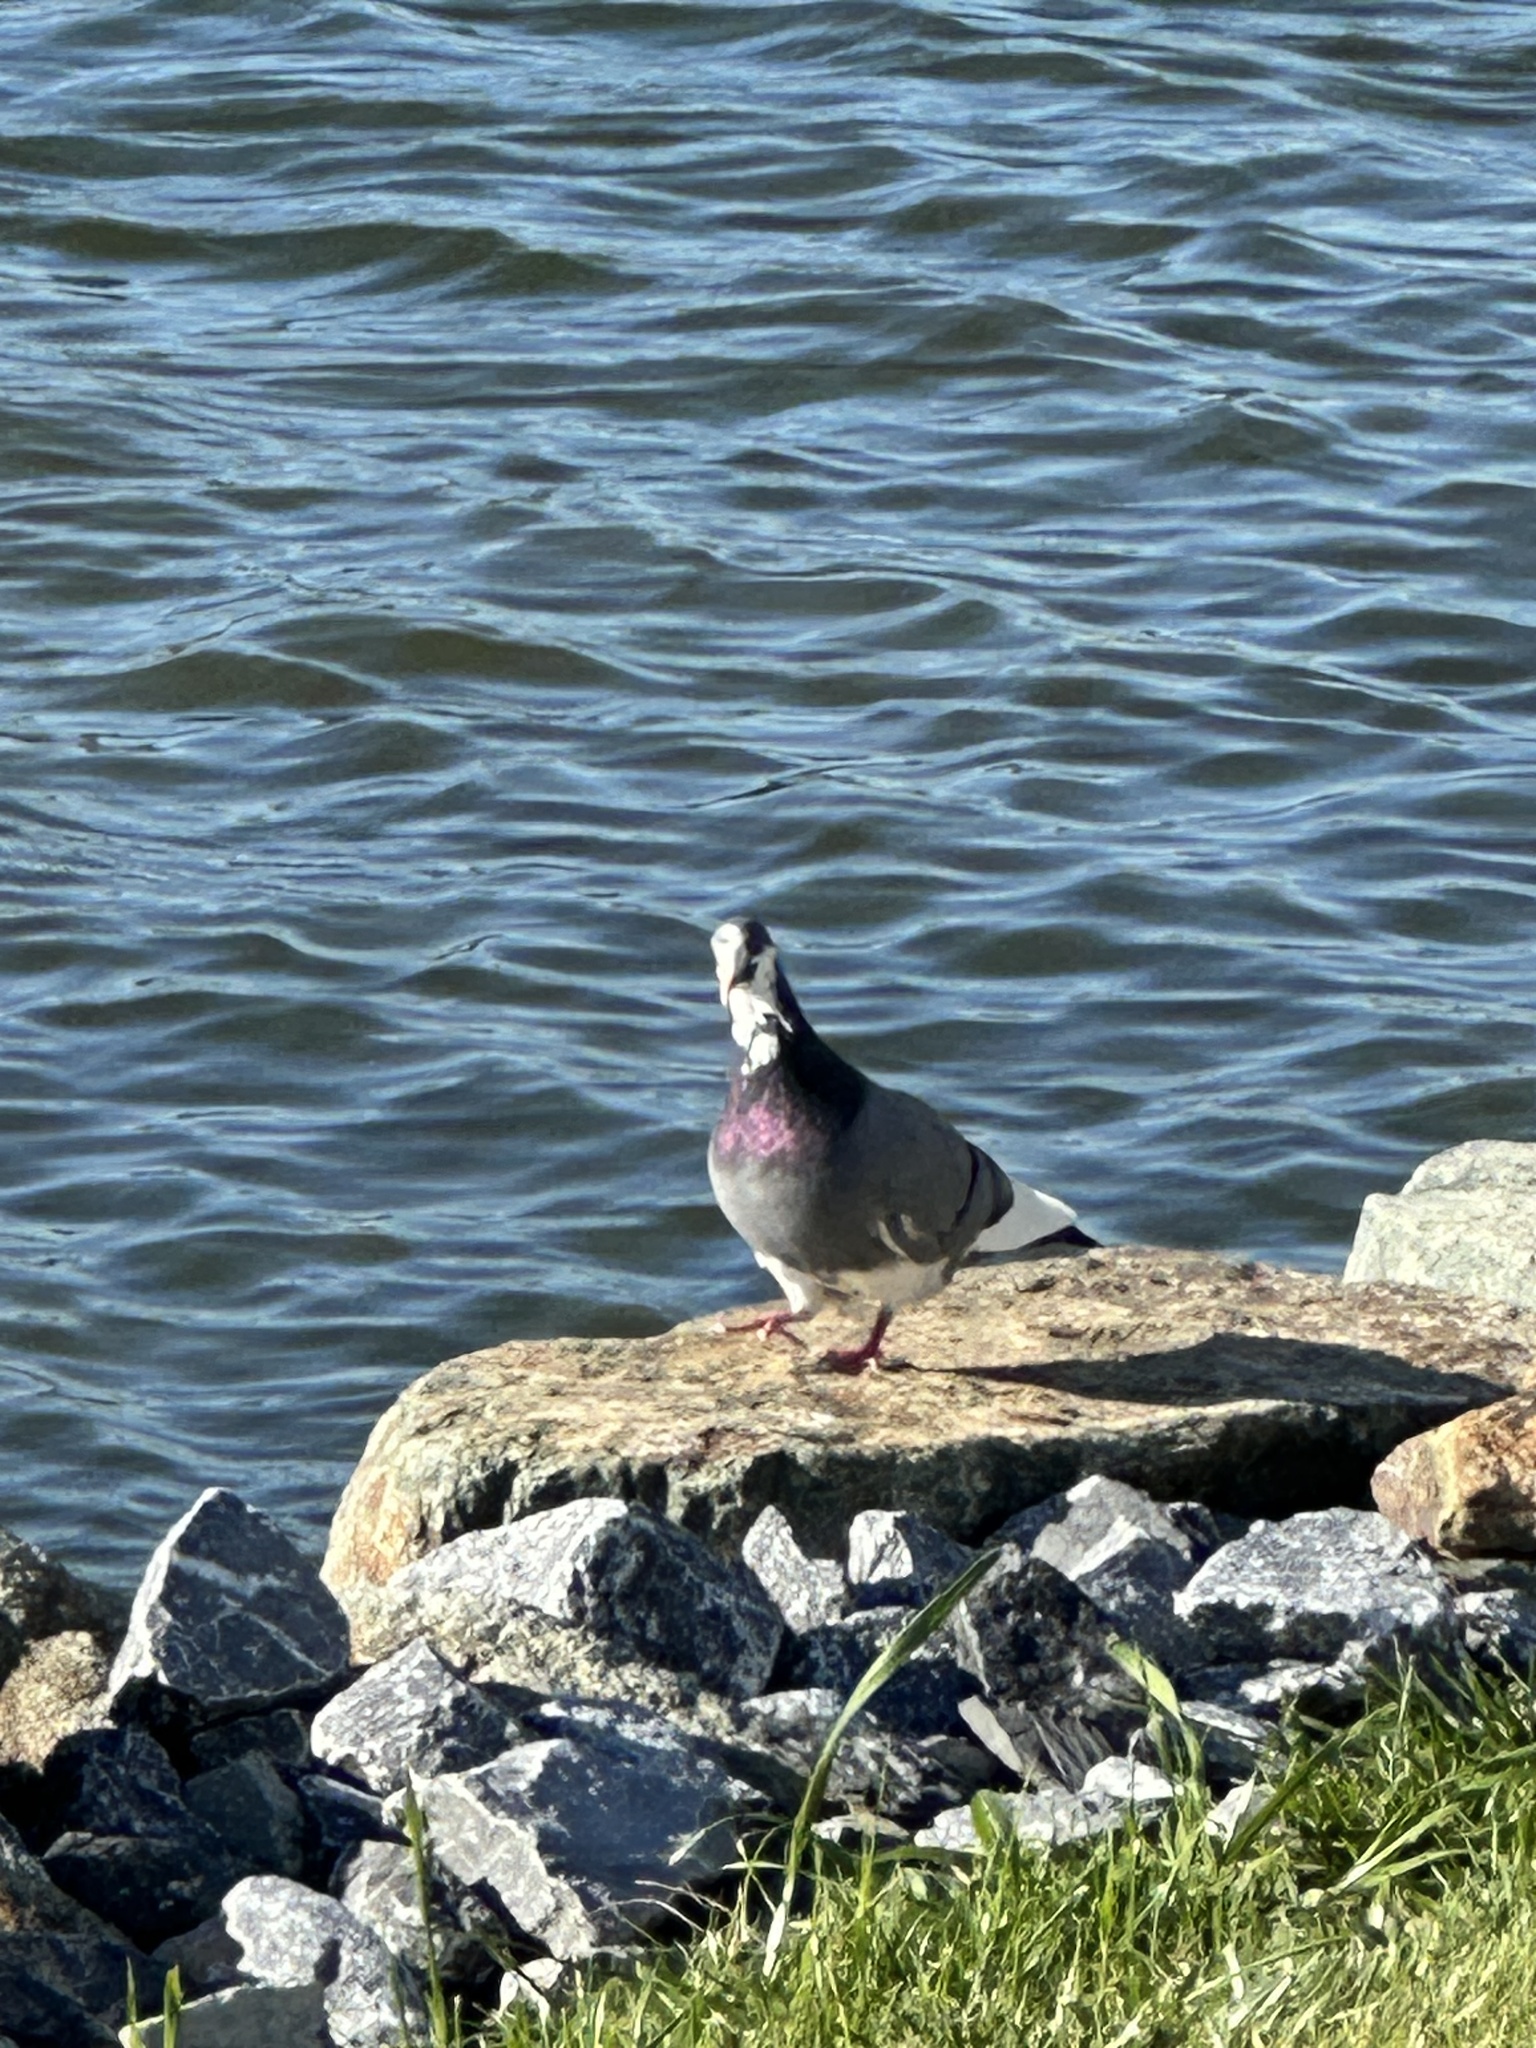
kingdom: Animalia
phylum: Chordata
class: Aves
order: Columbiformes
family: Columbidae
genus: Columba
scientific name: Columba livia
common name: Rock pigeon
